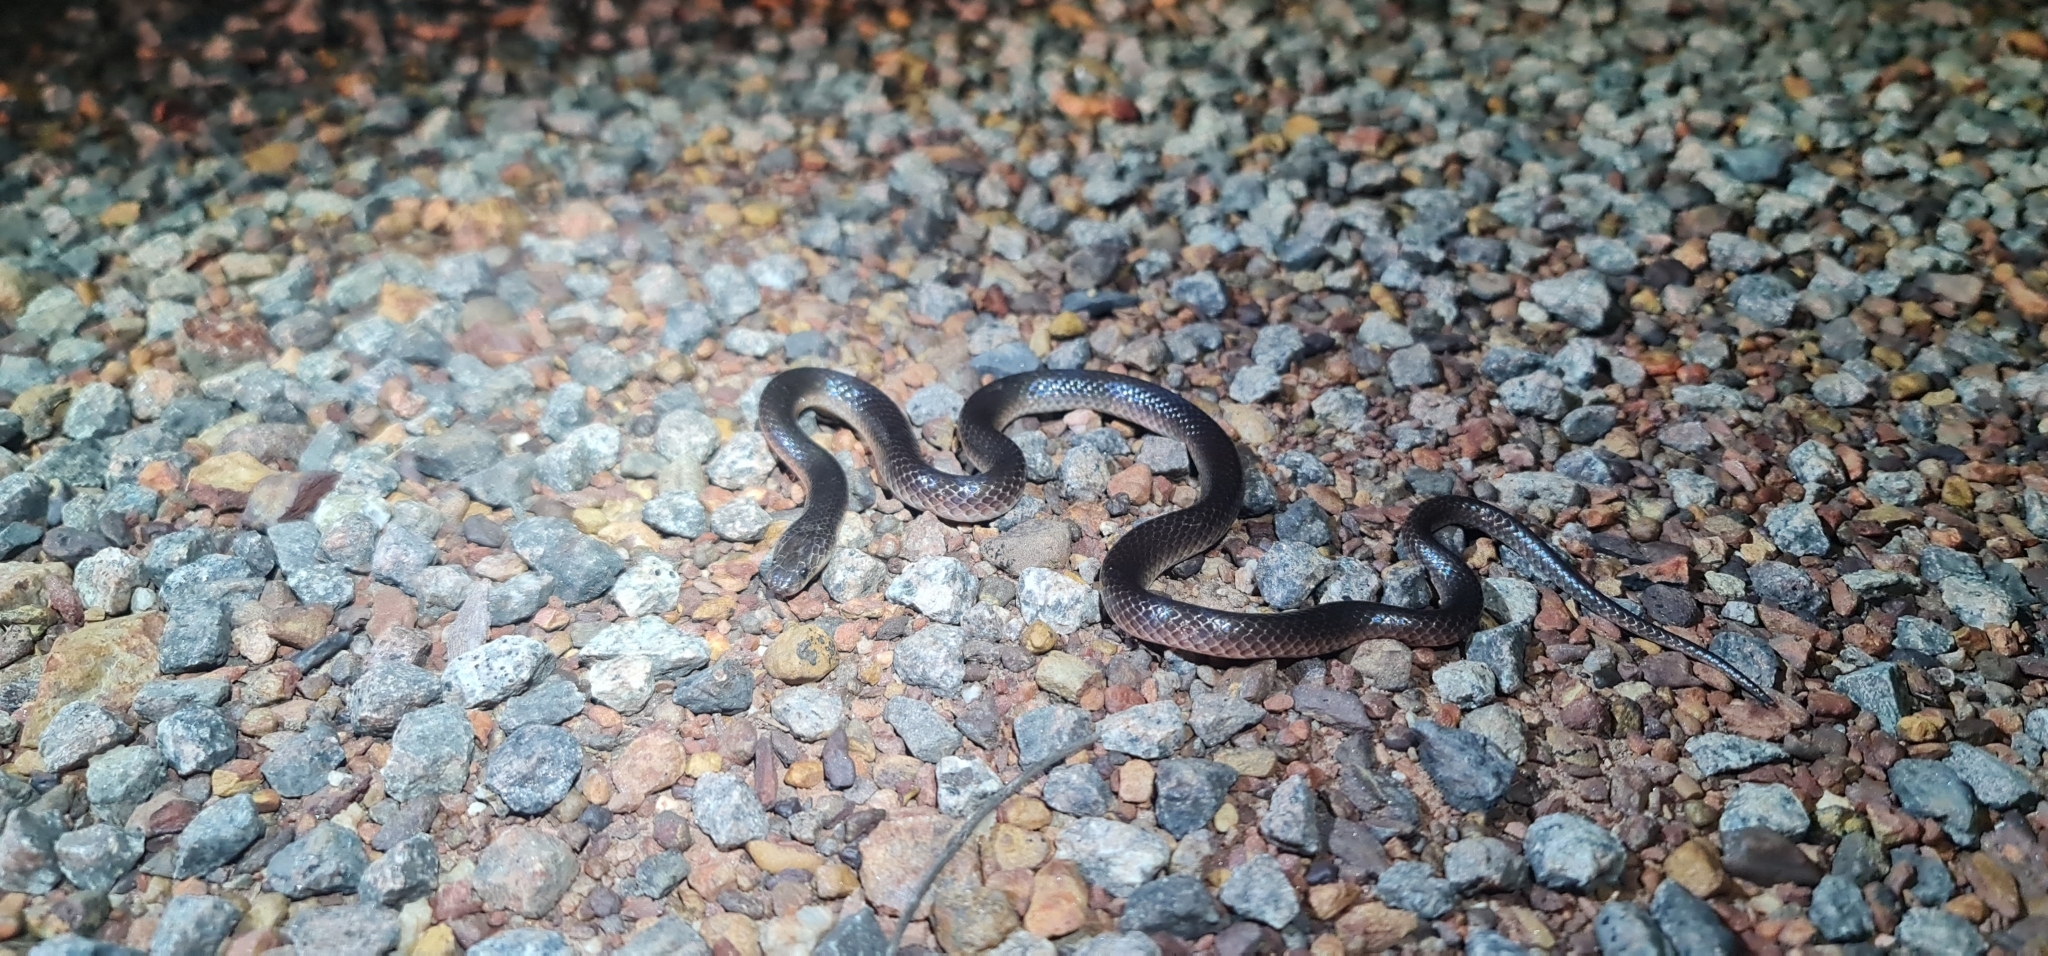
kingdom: Animalia
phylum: Chordata
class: Squamata
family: Elapidae
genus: Cryptophis
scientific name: Cryptophis pallidiceps
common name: Northern small-eyed snake
